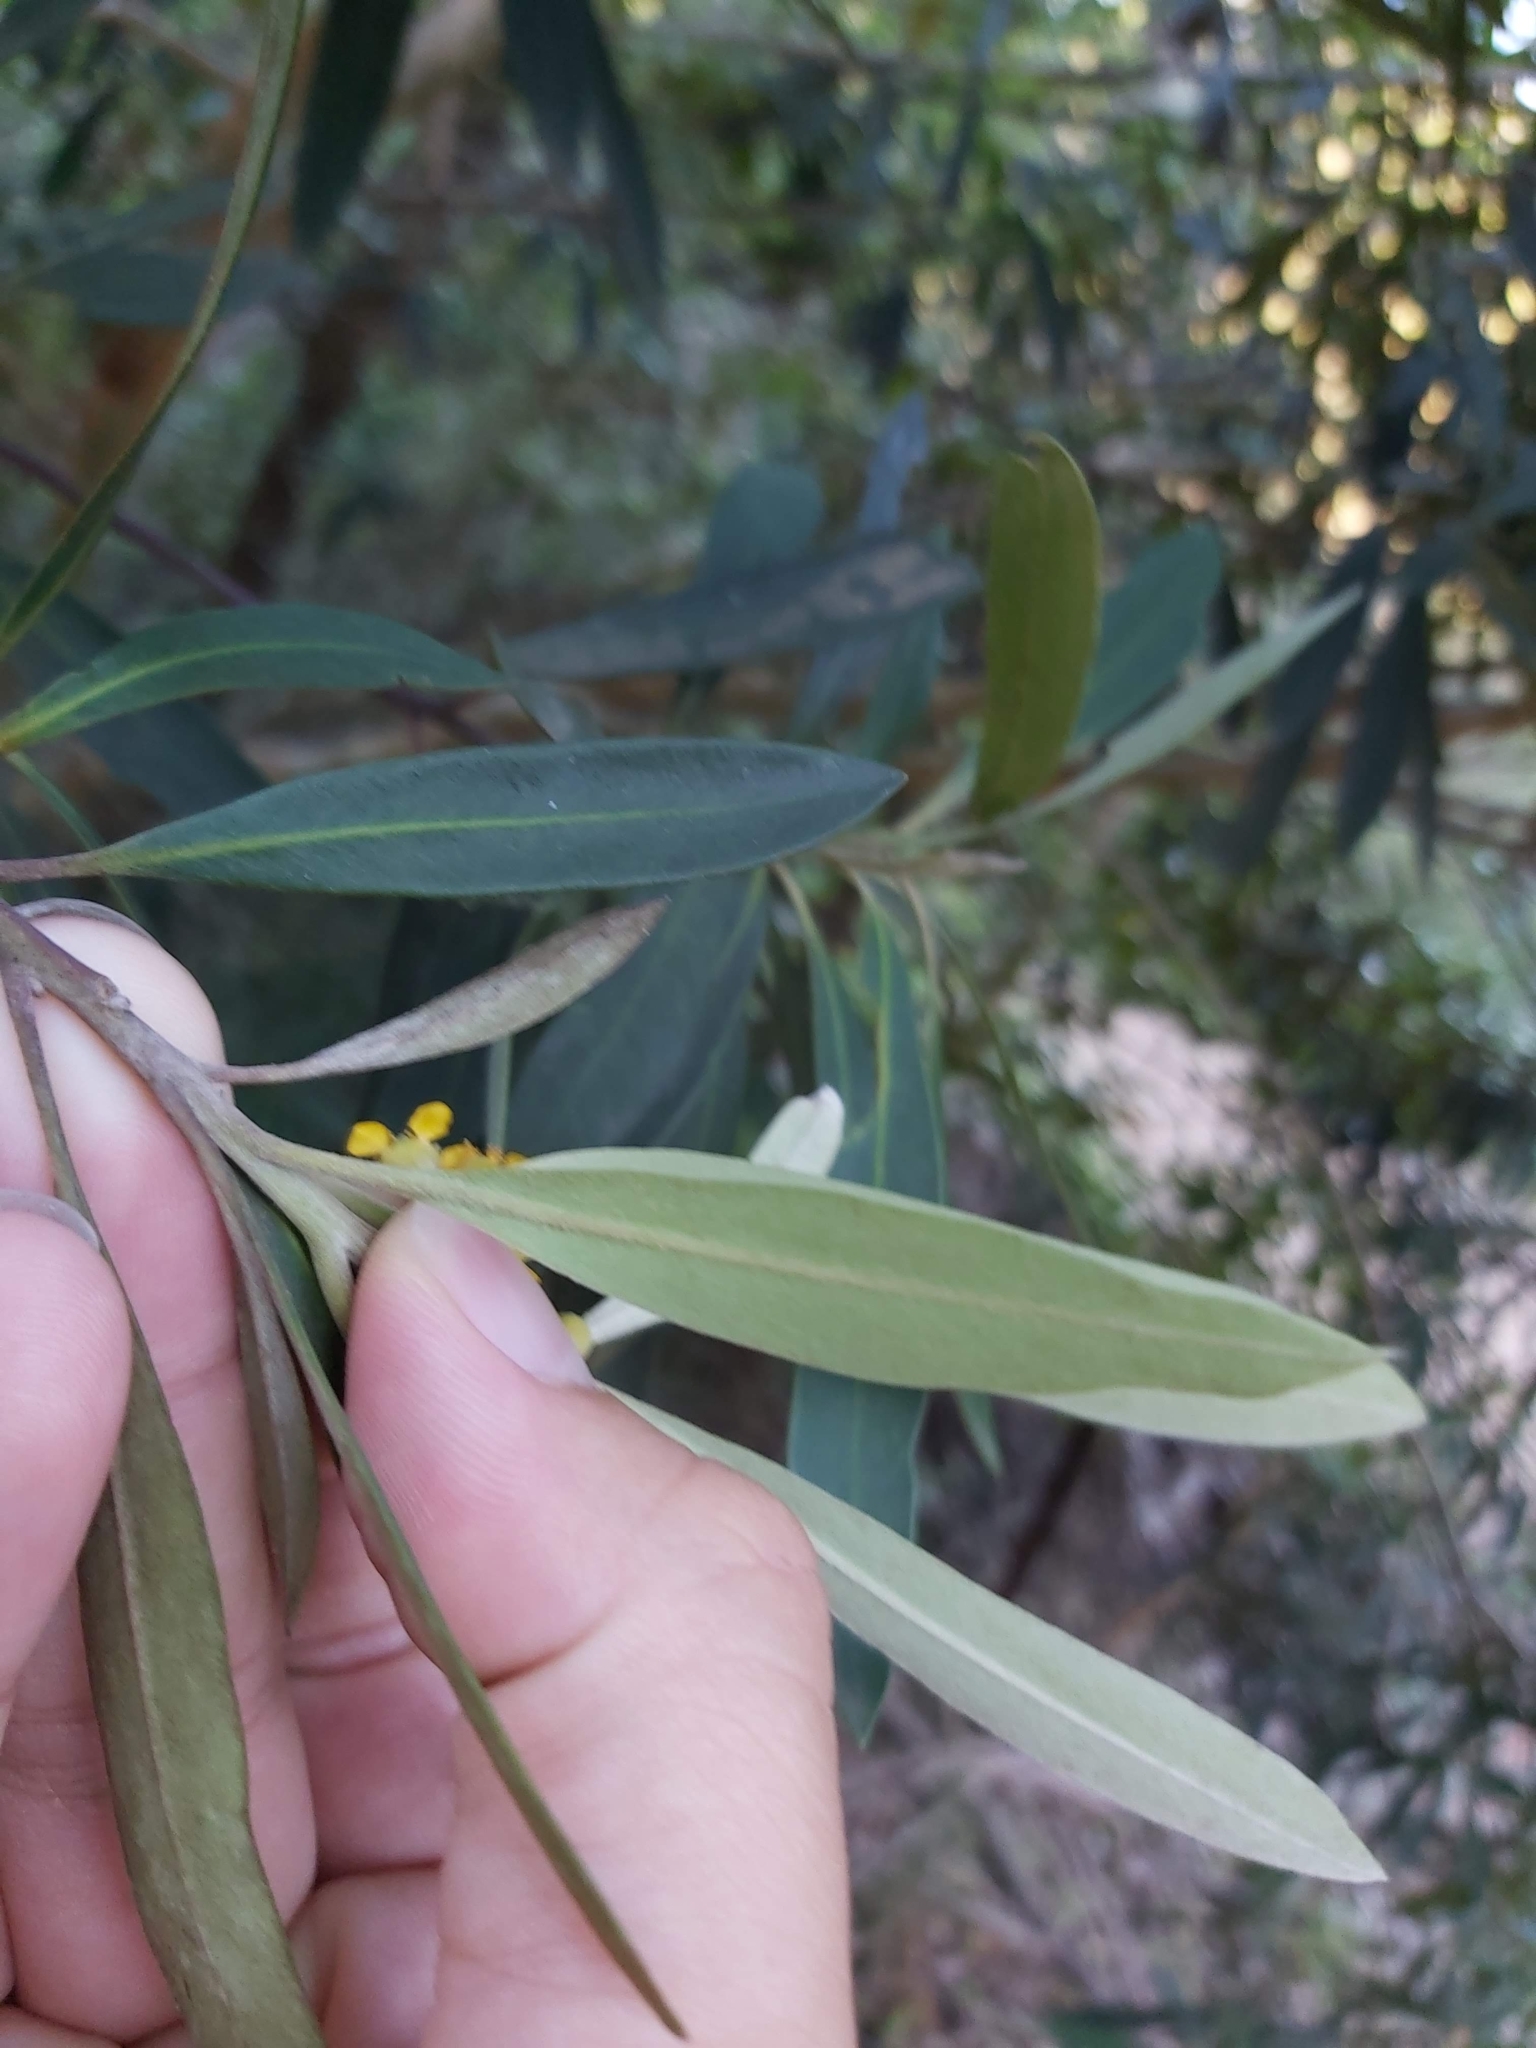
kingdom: Plantae
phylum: Tracheophyta
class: Magnoliopsida
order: Myrtales
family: Myrtaceae
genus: Tristaniopsis
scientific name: Tristaniopsis laurina
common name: Water-gum
